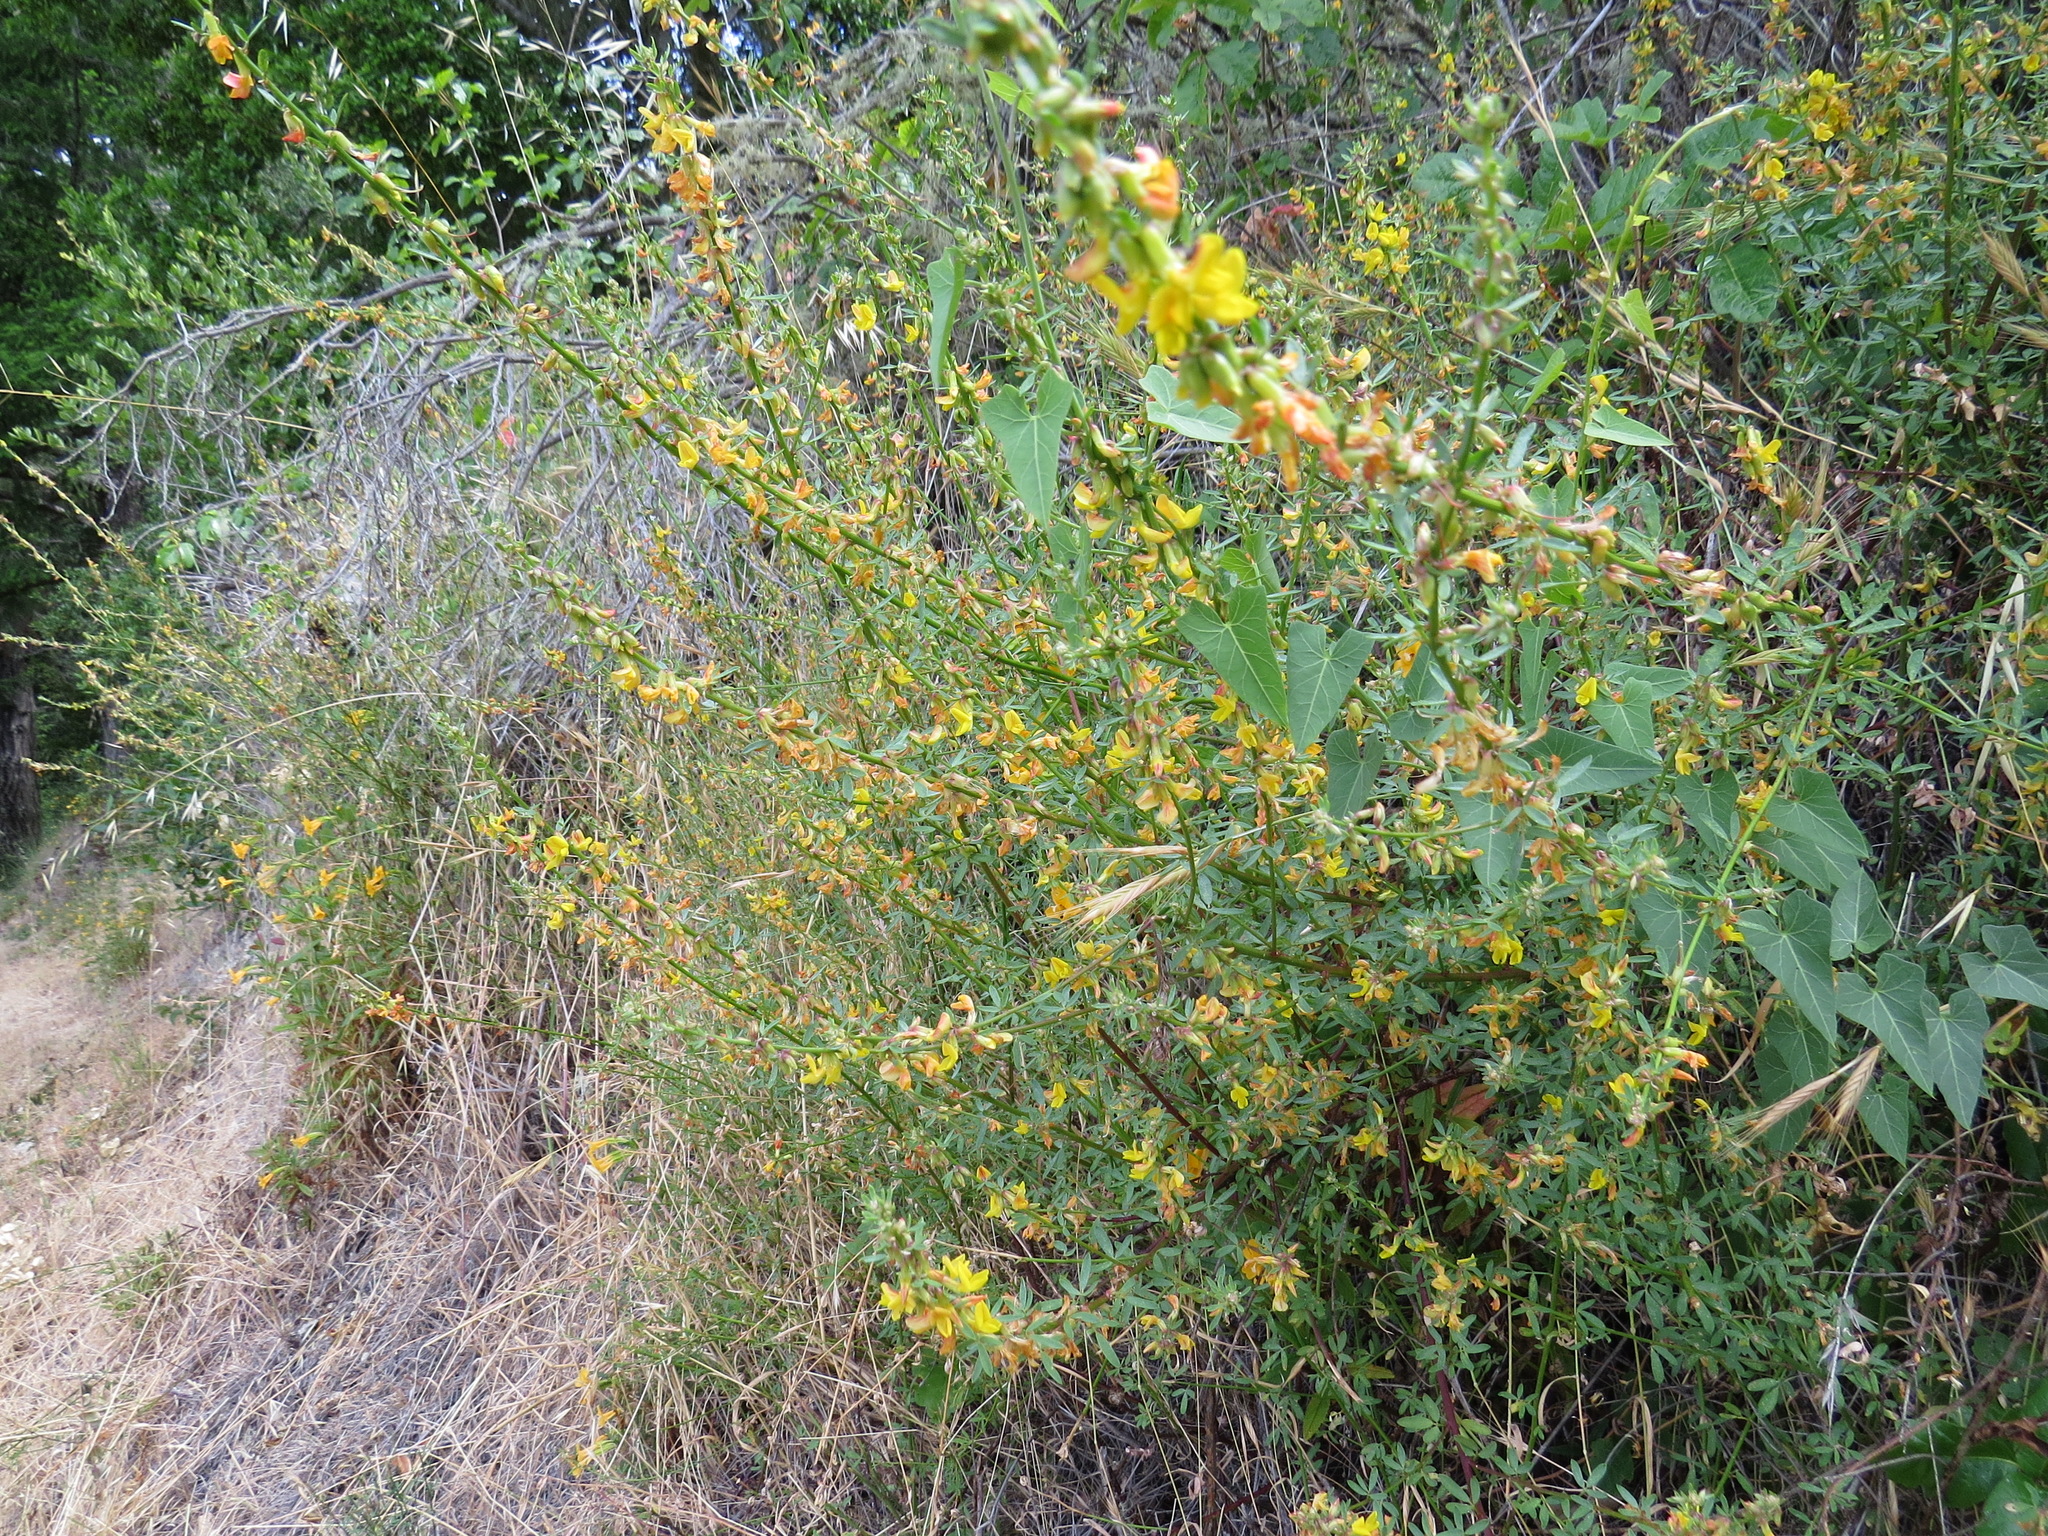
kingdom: Plantae
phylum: Tracheophyta
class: Magnoliopsida
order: Fabales
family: Fabaceae
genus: Acmispon
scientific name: Acmispon glaber
